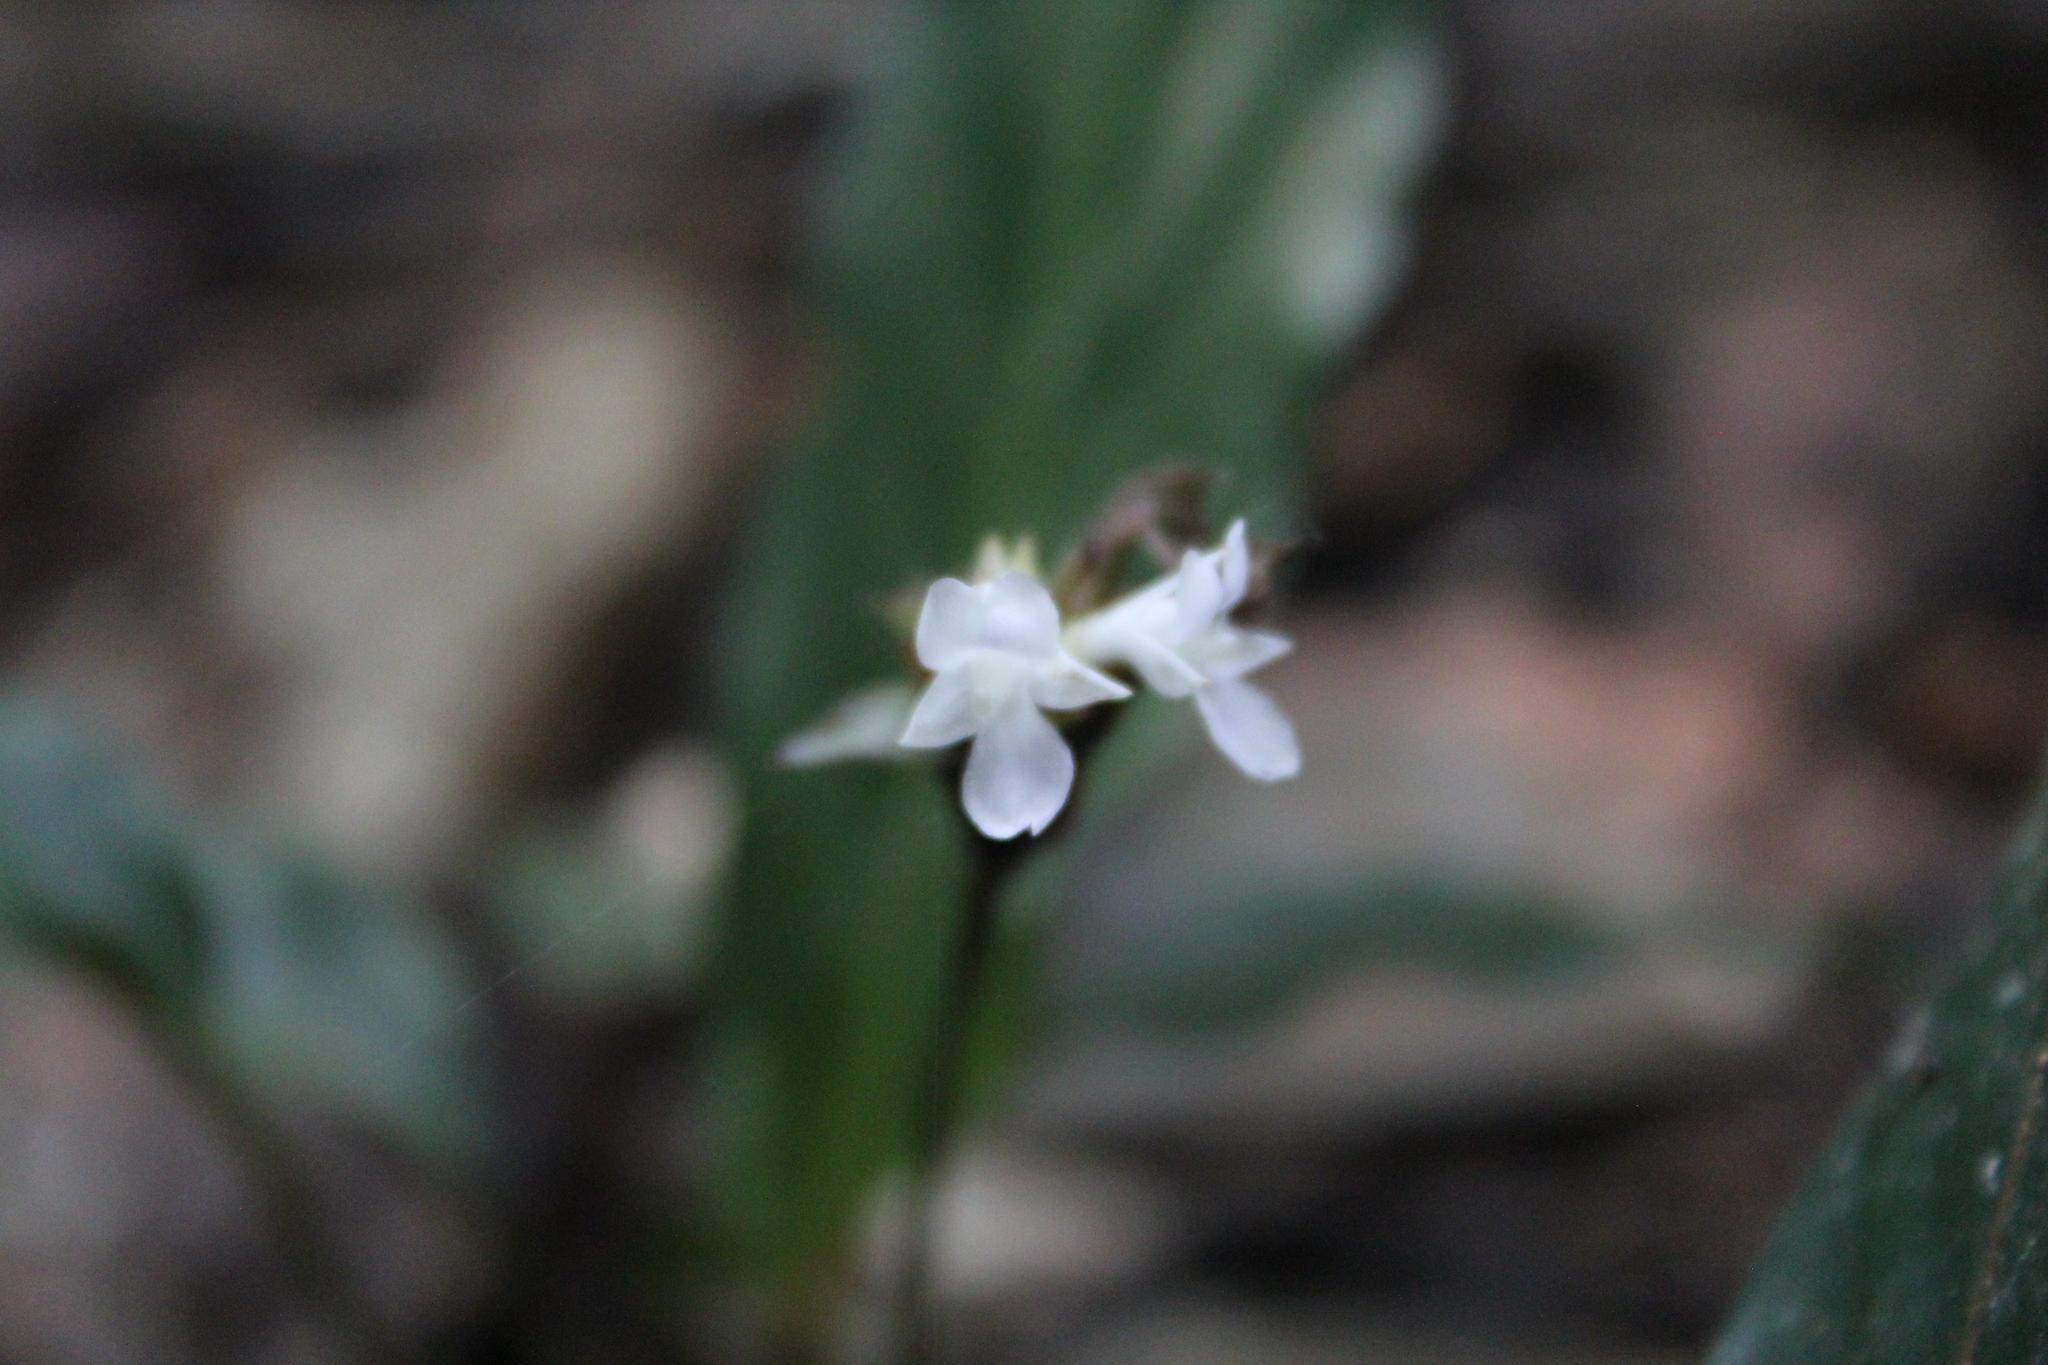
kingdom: Plantae
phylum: Tracheophyta
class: Liliopsida
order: Zingiberales
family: Marantaceae
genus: Goeppertia
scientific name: Goeppertia micans
